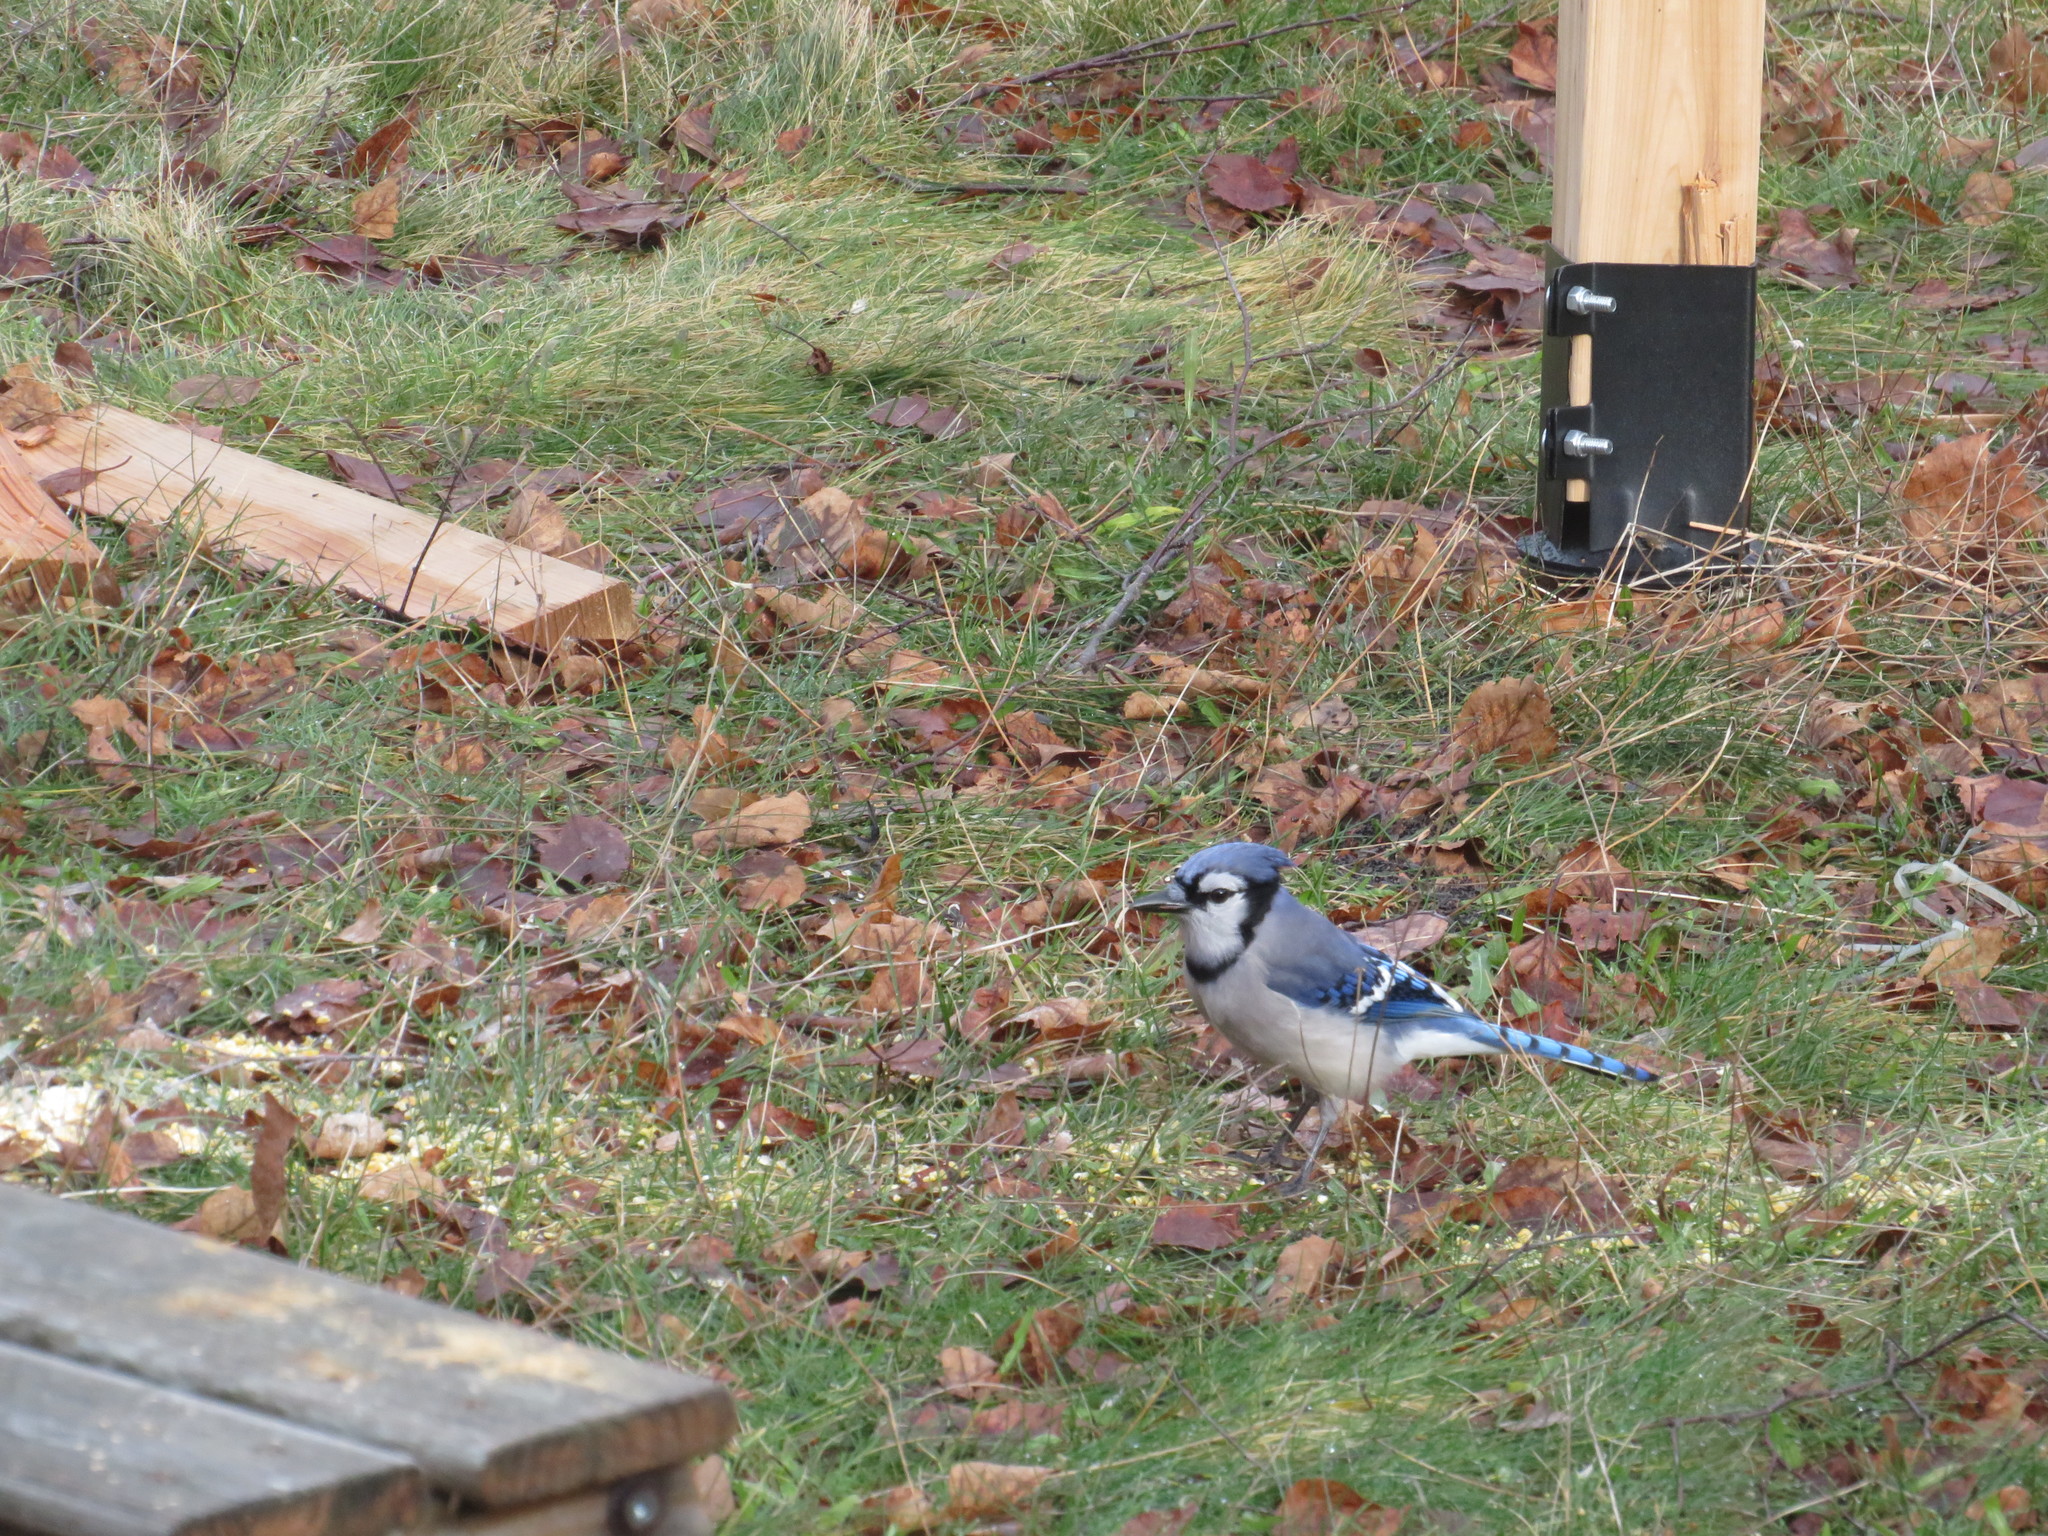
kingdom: Animalia
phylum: Chordata
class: Aves
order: Passeriformes
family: Corvidae
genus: Cyanocitta
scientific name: Cyanocitta cristata
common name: Blue jay
